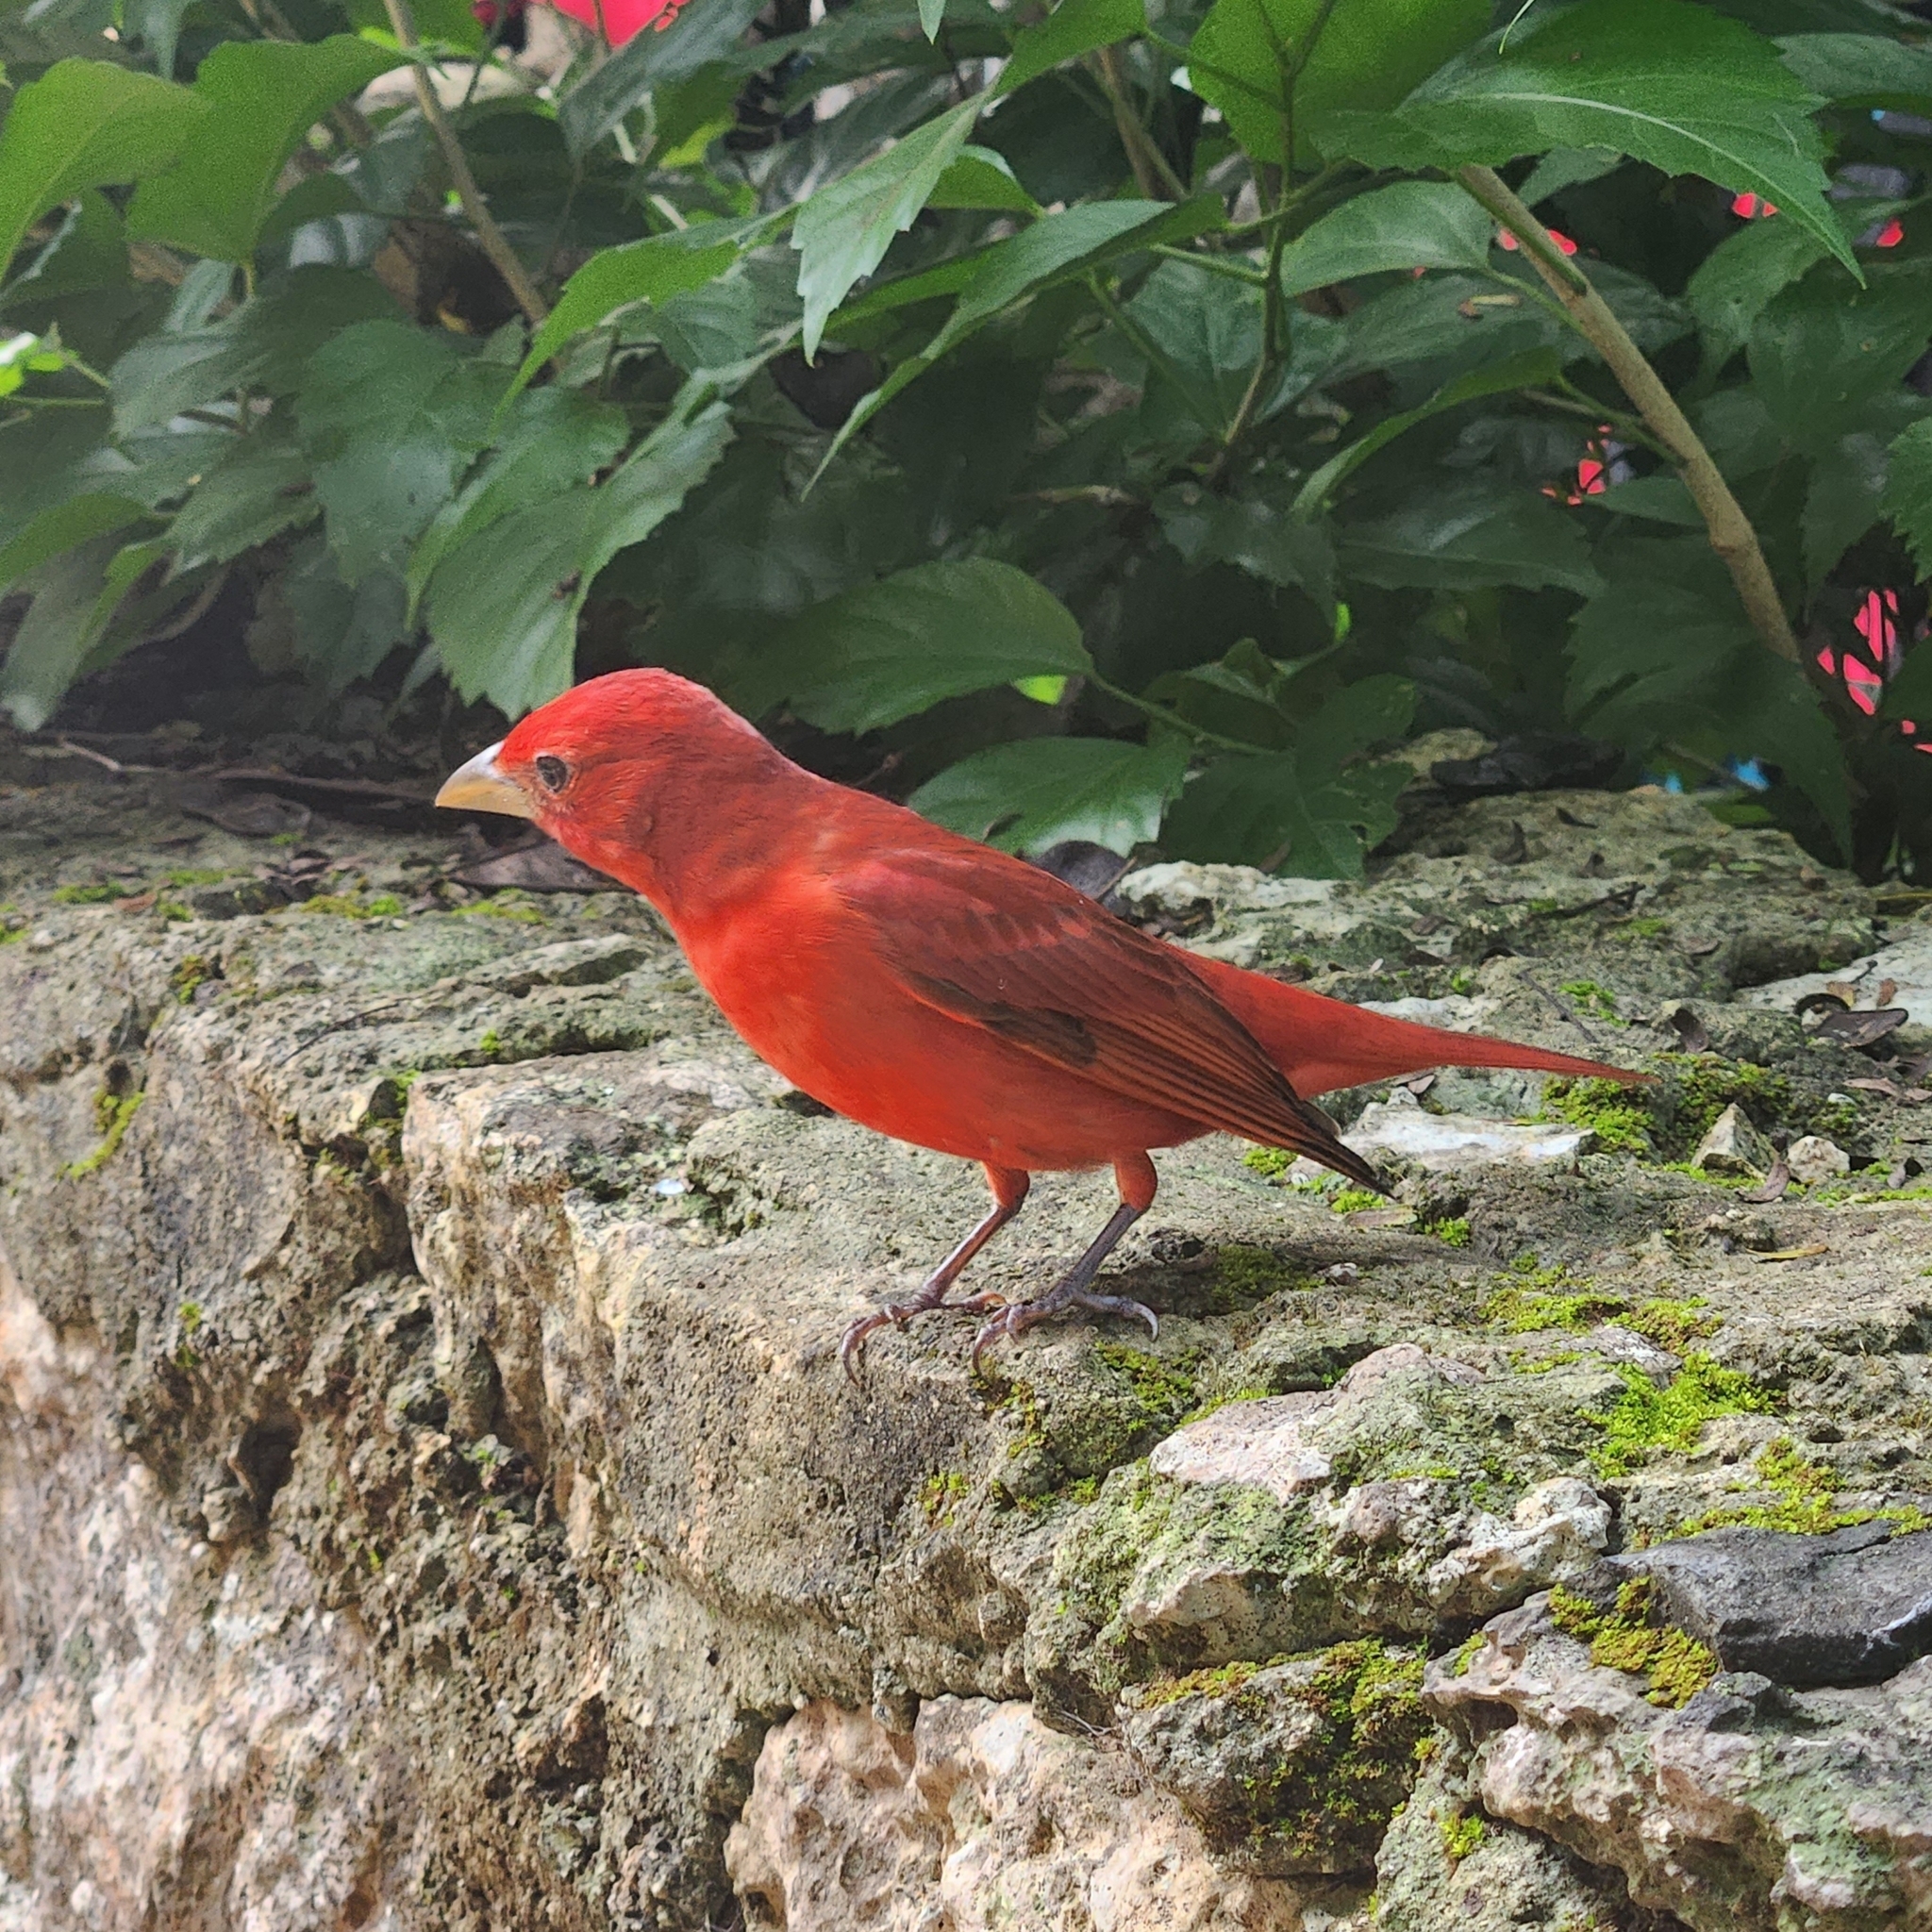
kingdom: Animalia
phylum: Chordata
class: Aves
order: Passeriformes
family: Cardinalidae
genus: Piranga
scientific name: Piranga rubra
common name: Summer tanager
